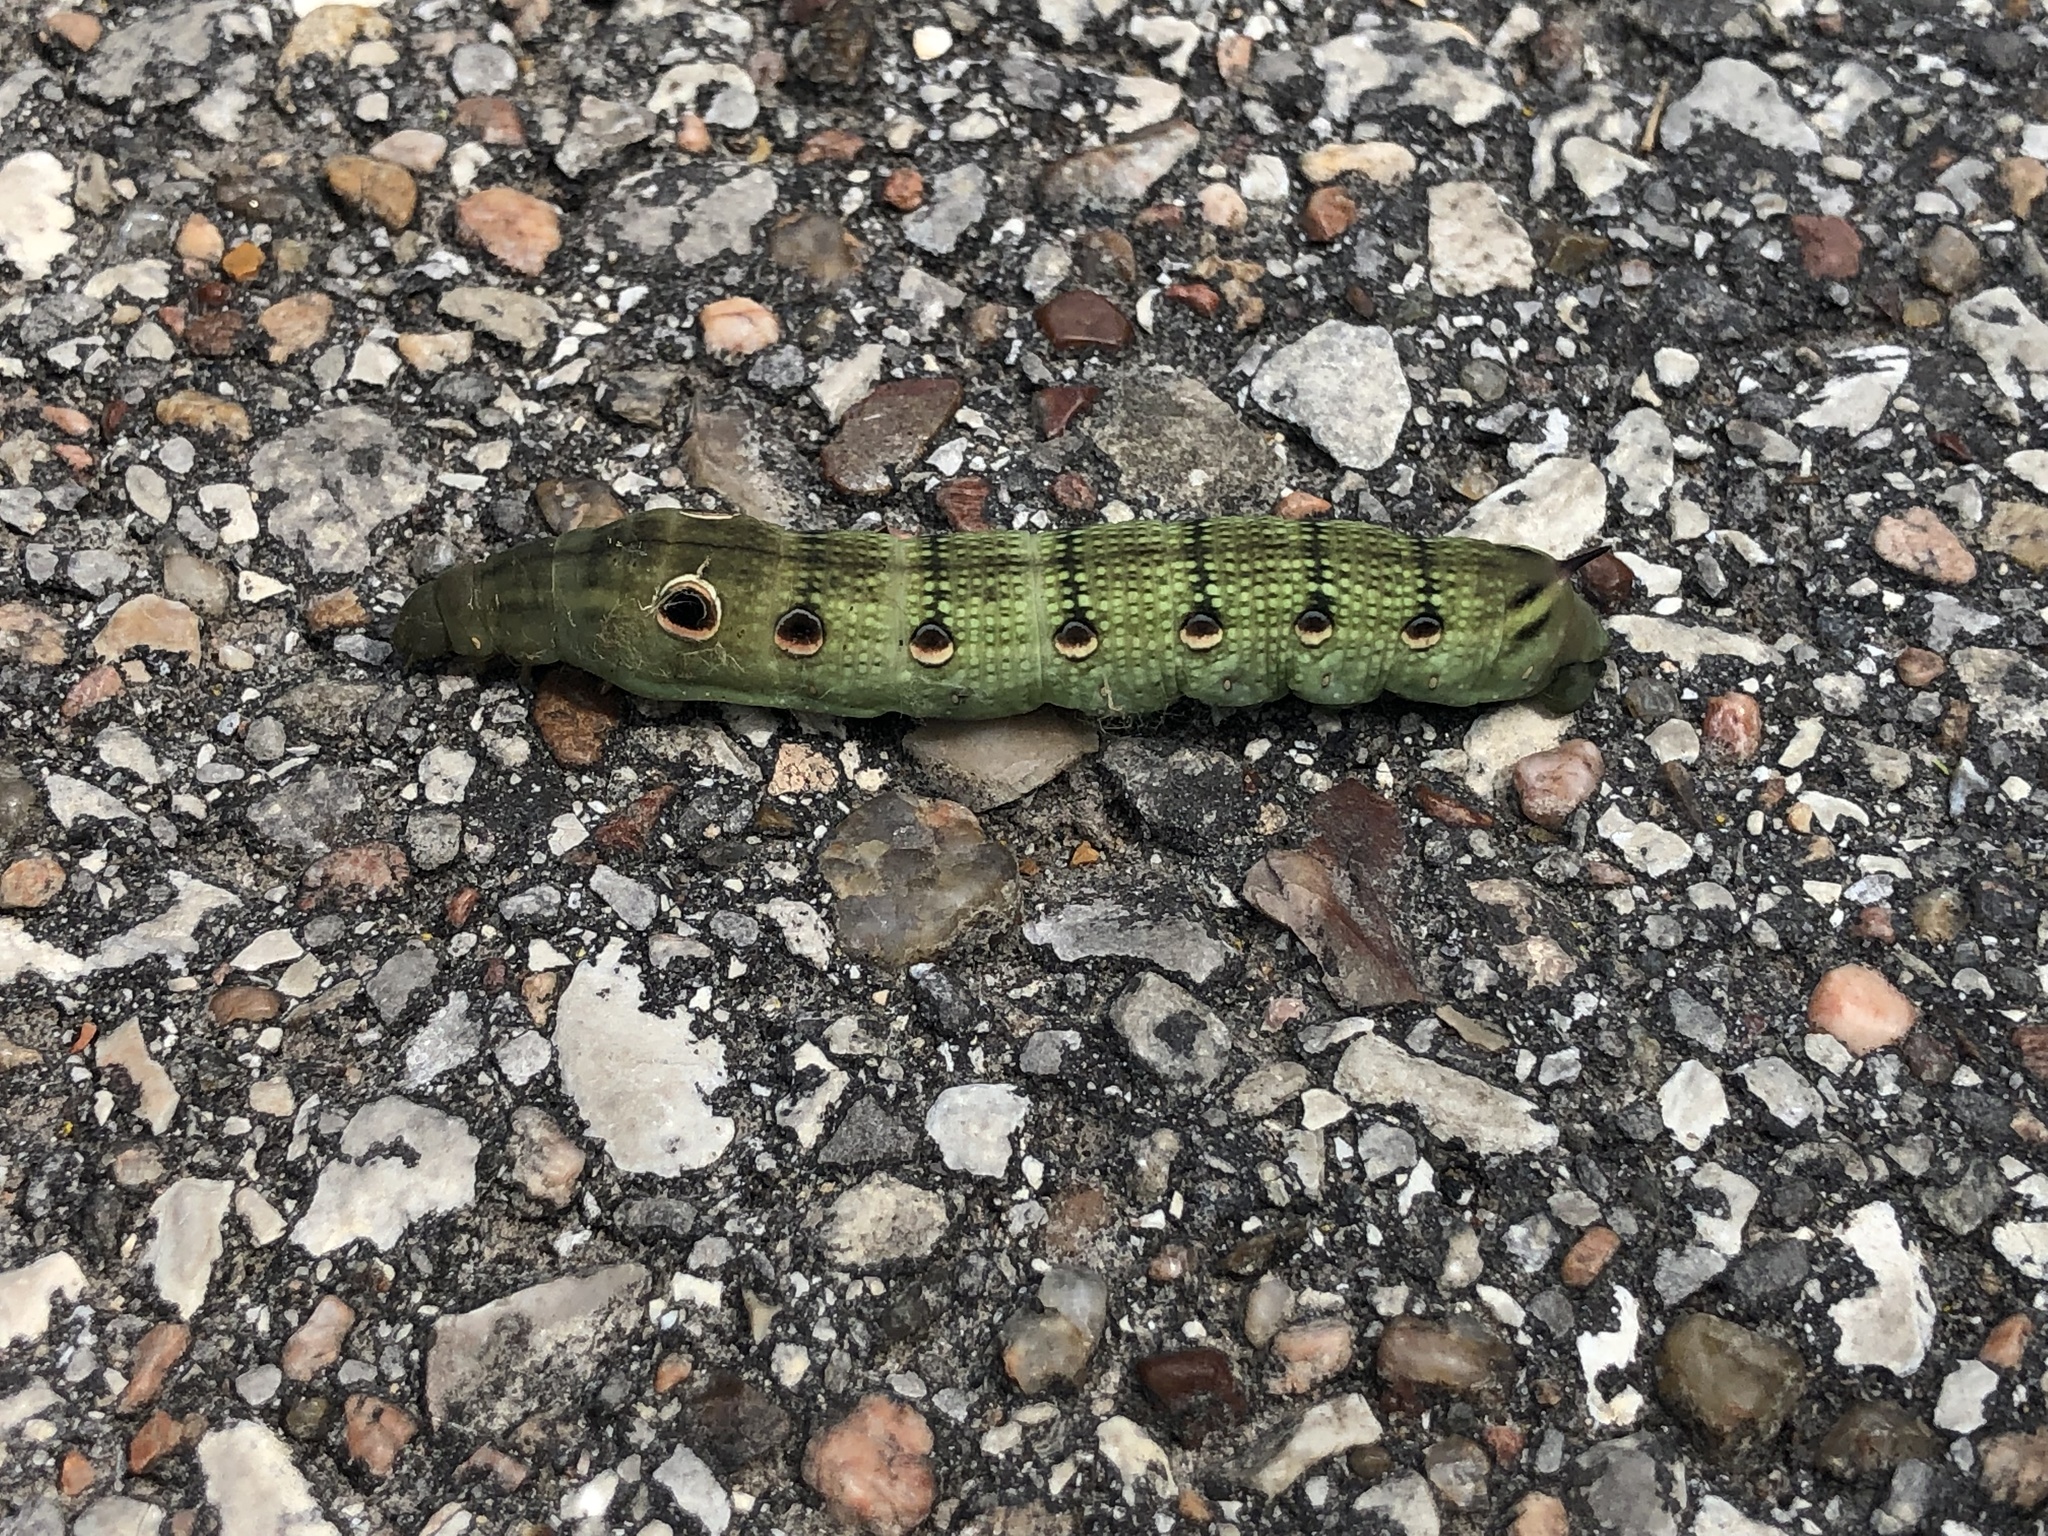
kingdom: Animalia
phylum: Arthropoda
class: Insecta
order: Lepidoptera
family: Sphingidae
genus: Xylophanes
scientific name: Xylophanes tersa
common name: Tersa sphinx
